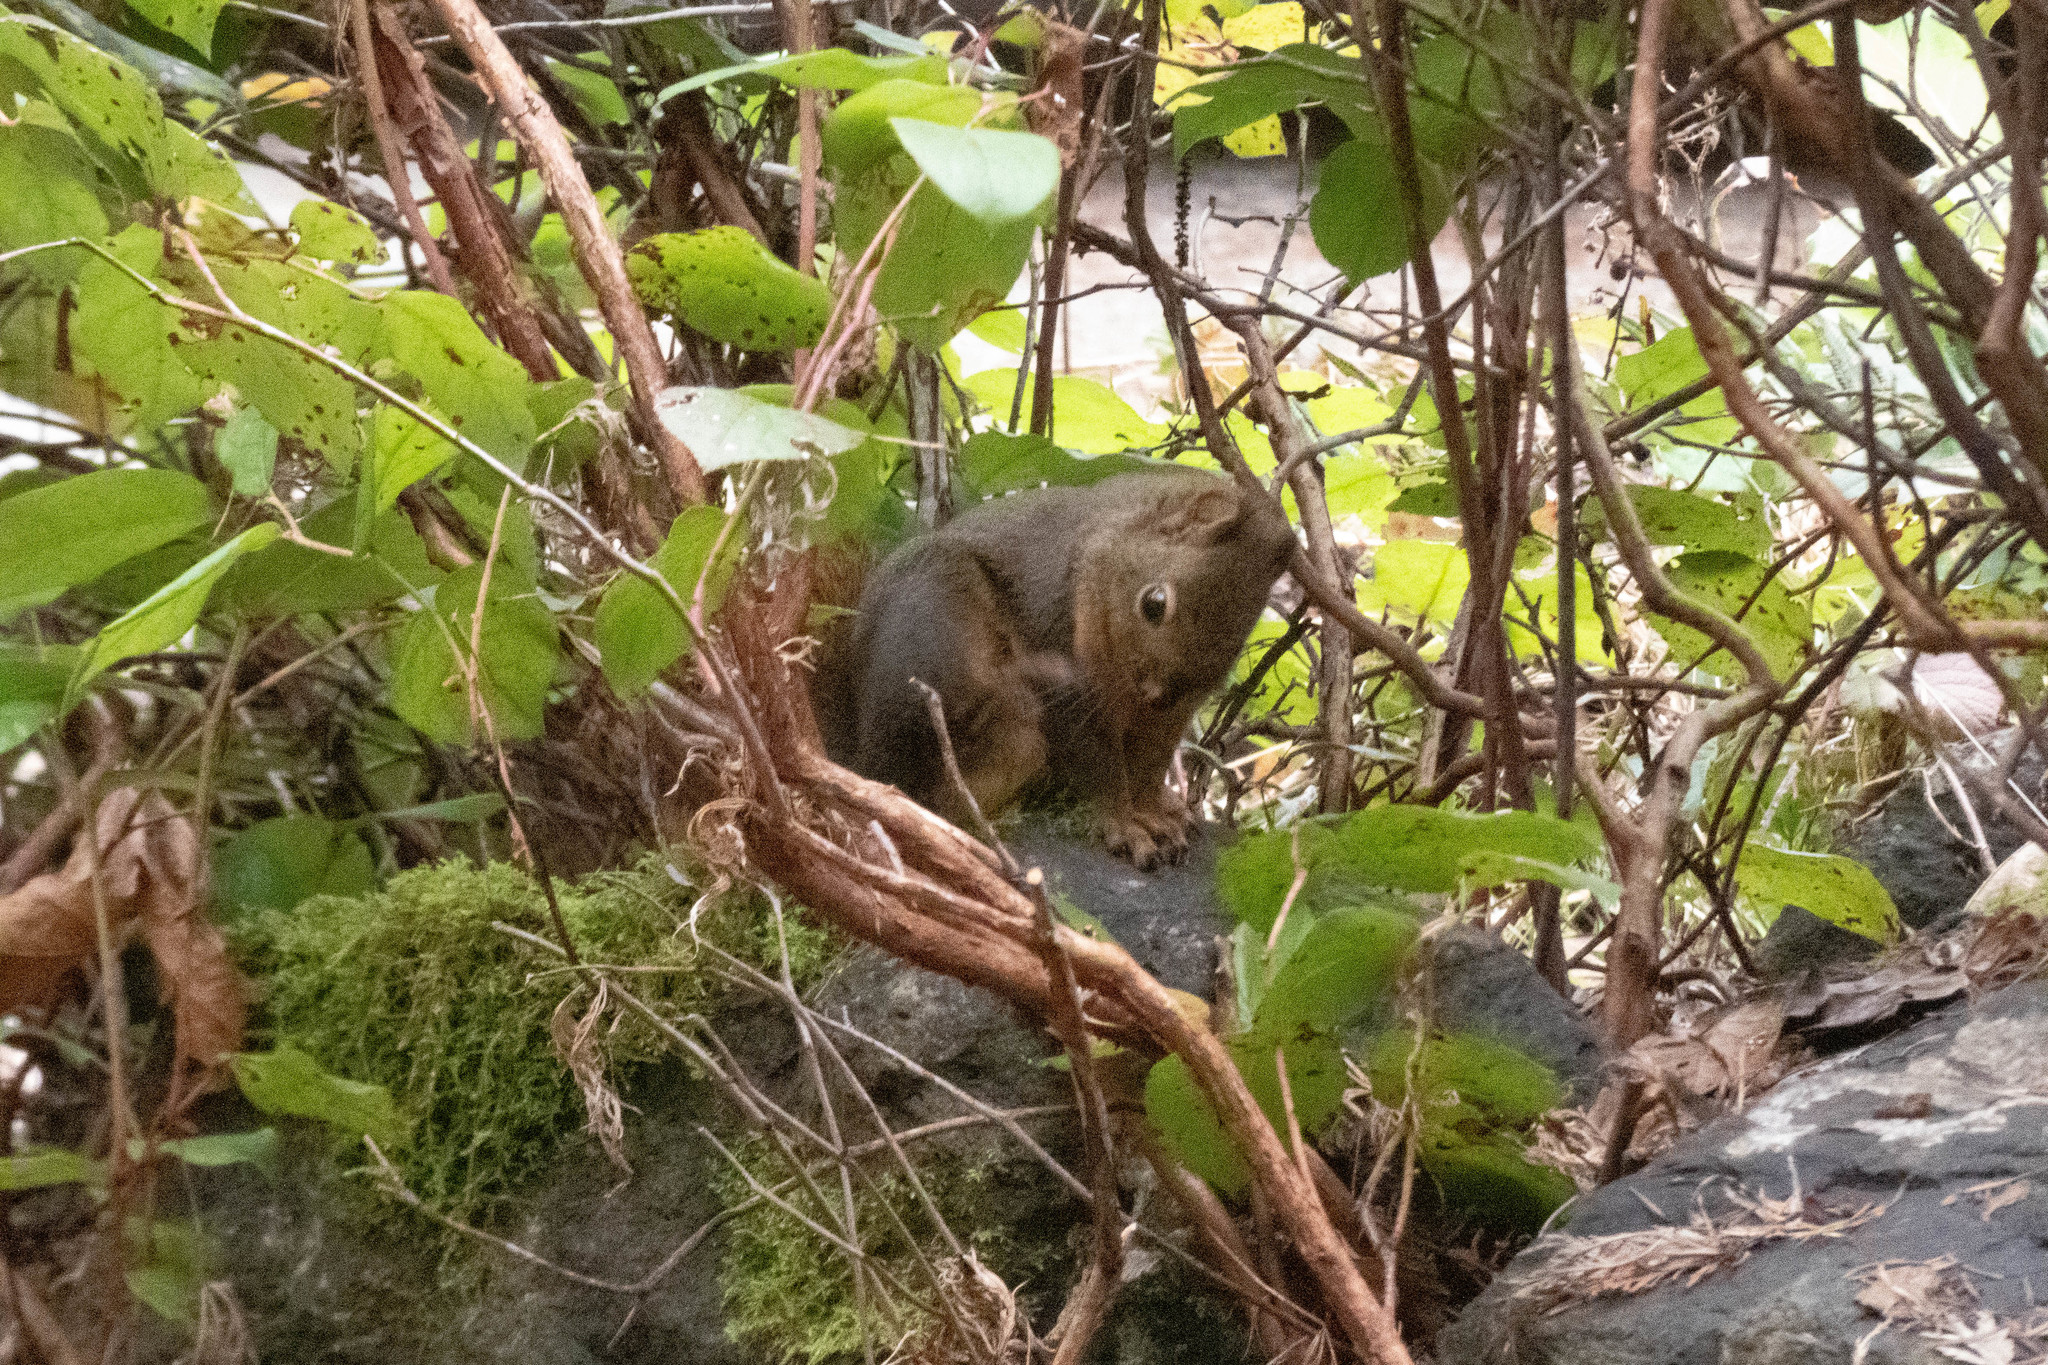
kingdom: Animalia
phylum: Chordata
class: Mammalia
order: Rodentia
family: Sciuridae
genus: Tamiasciurus
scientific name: Tamiasciurus douglasii
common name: Douglas's squirrel
